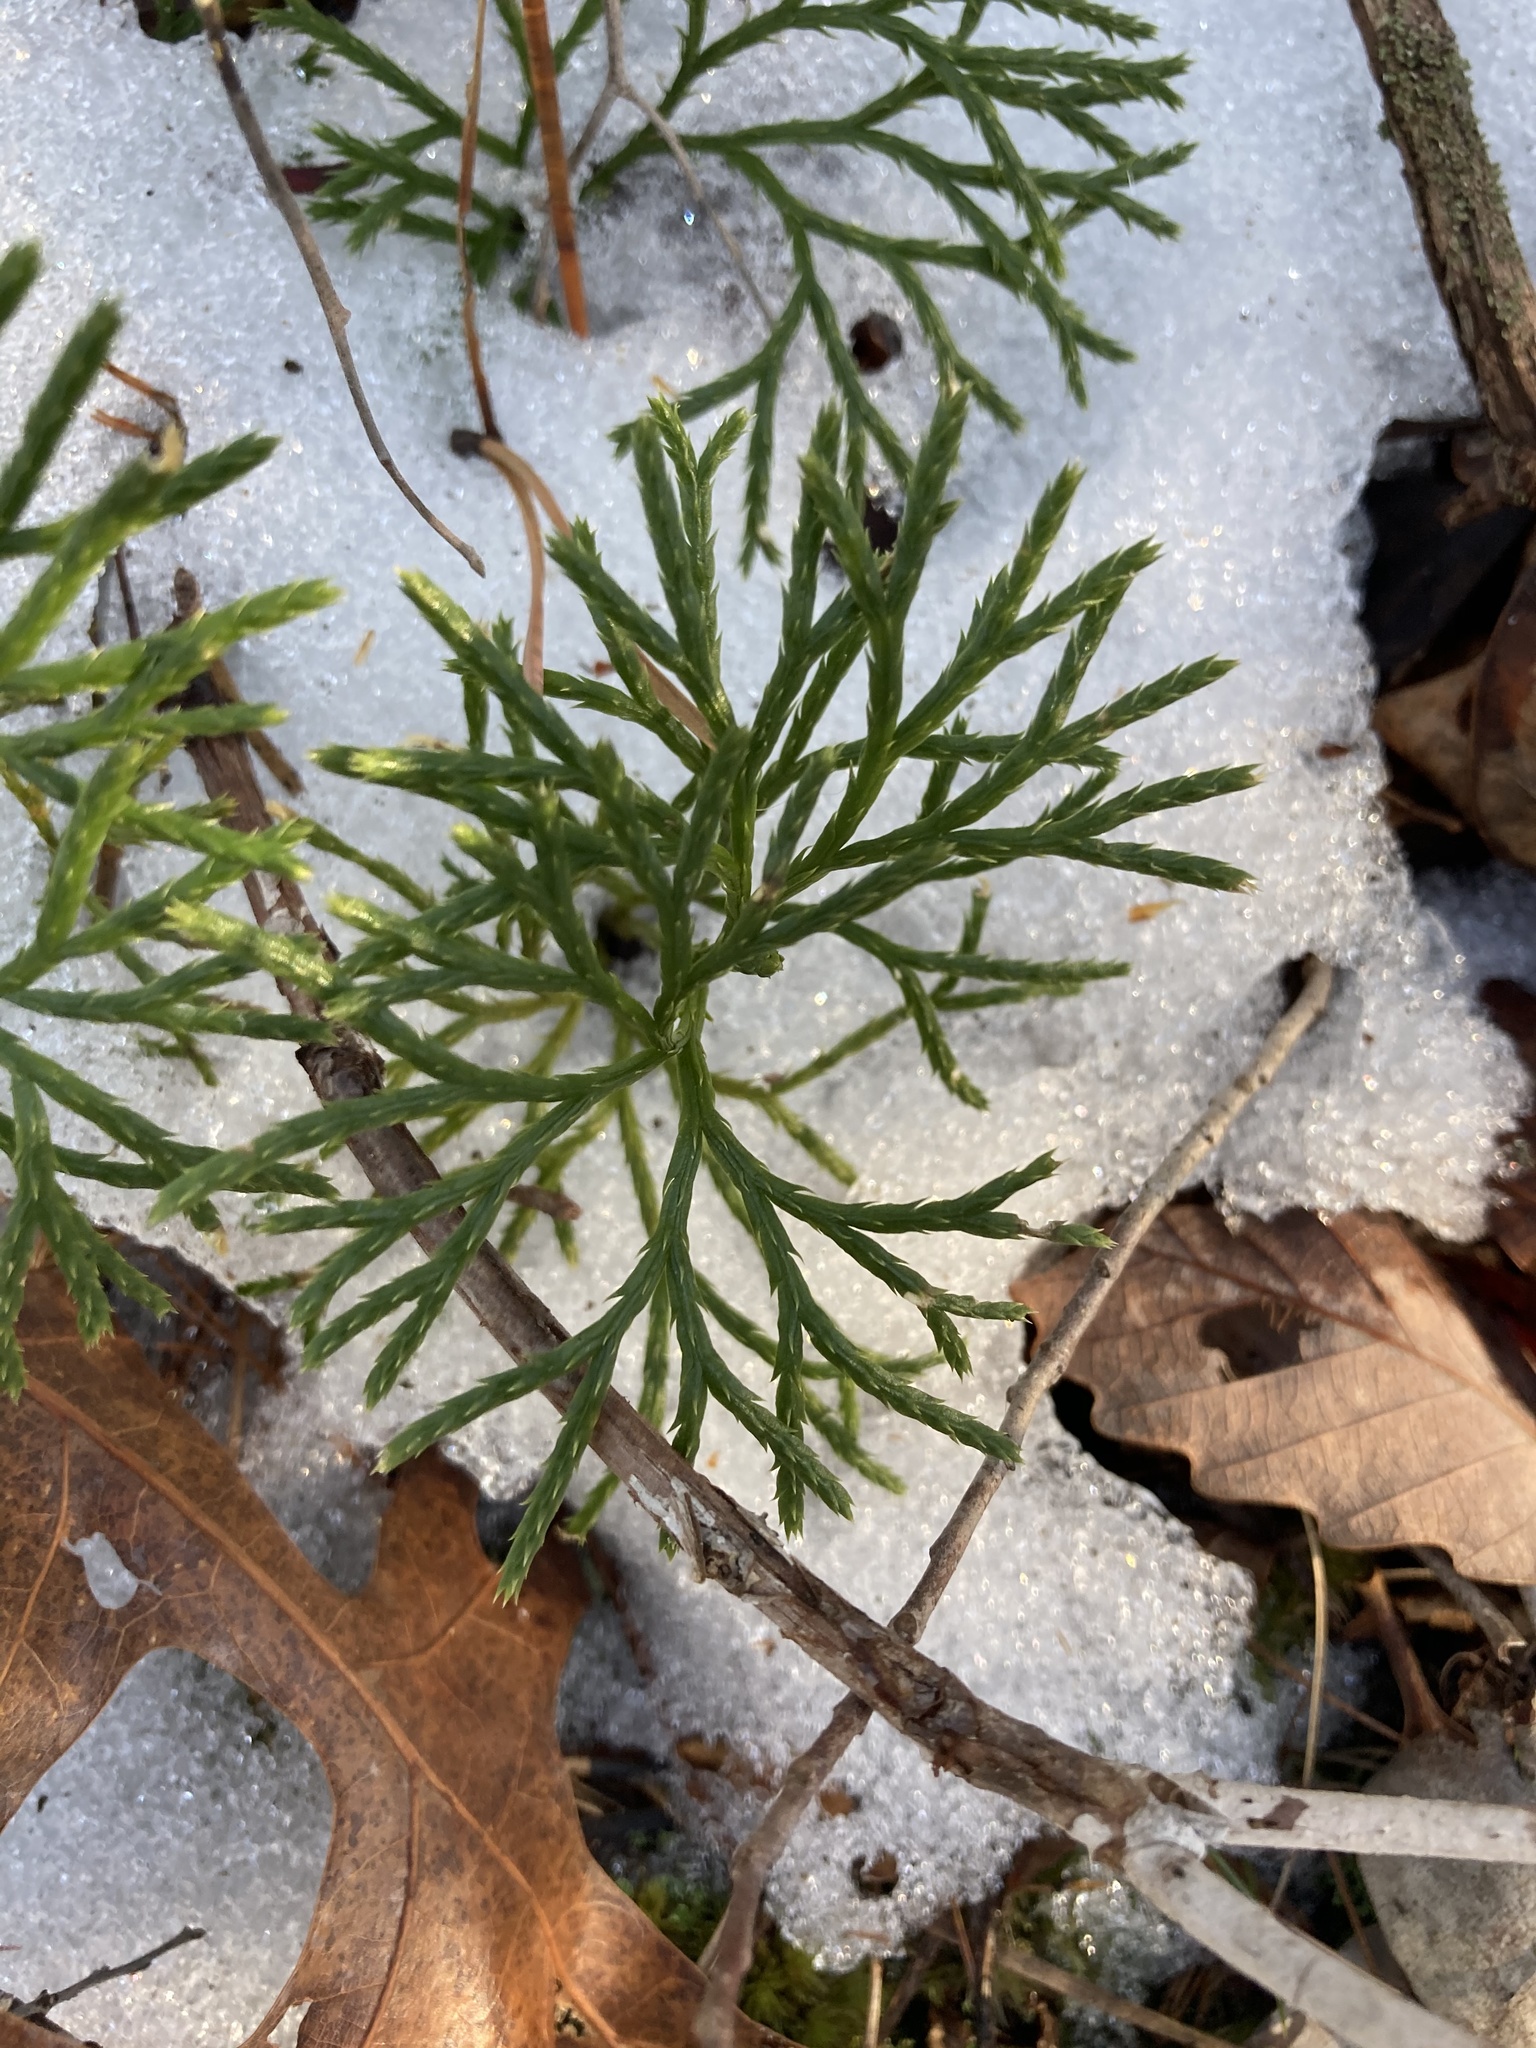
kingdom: Plantae
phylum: Tracheophyta
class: Lycopodiopsida
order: Lycopodiales
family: Lycopodiaceae
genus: Diphasiastrum
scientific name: Diphasiastrum digitatum
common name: Southern running-pine
